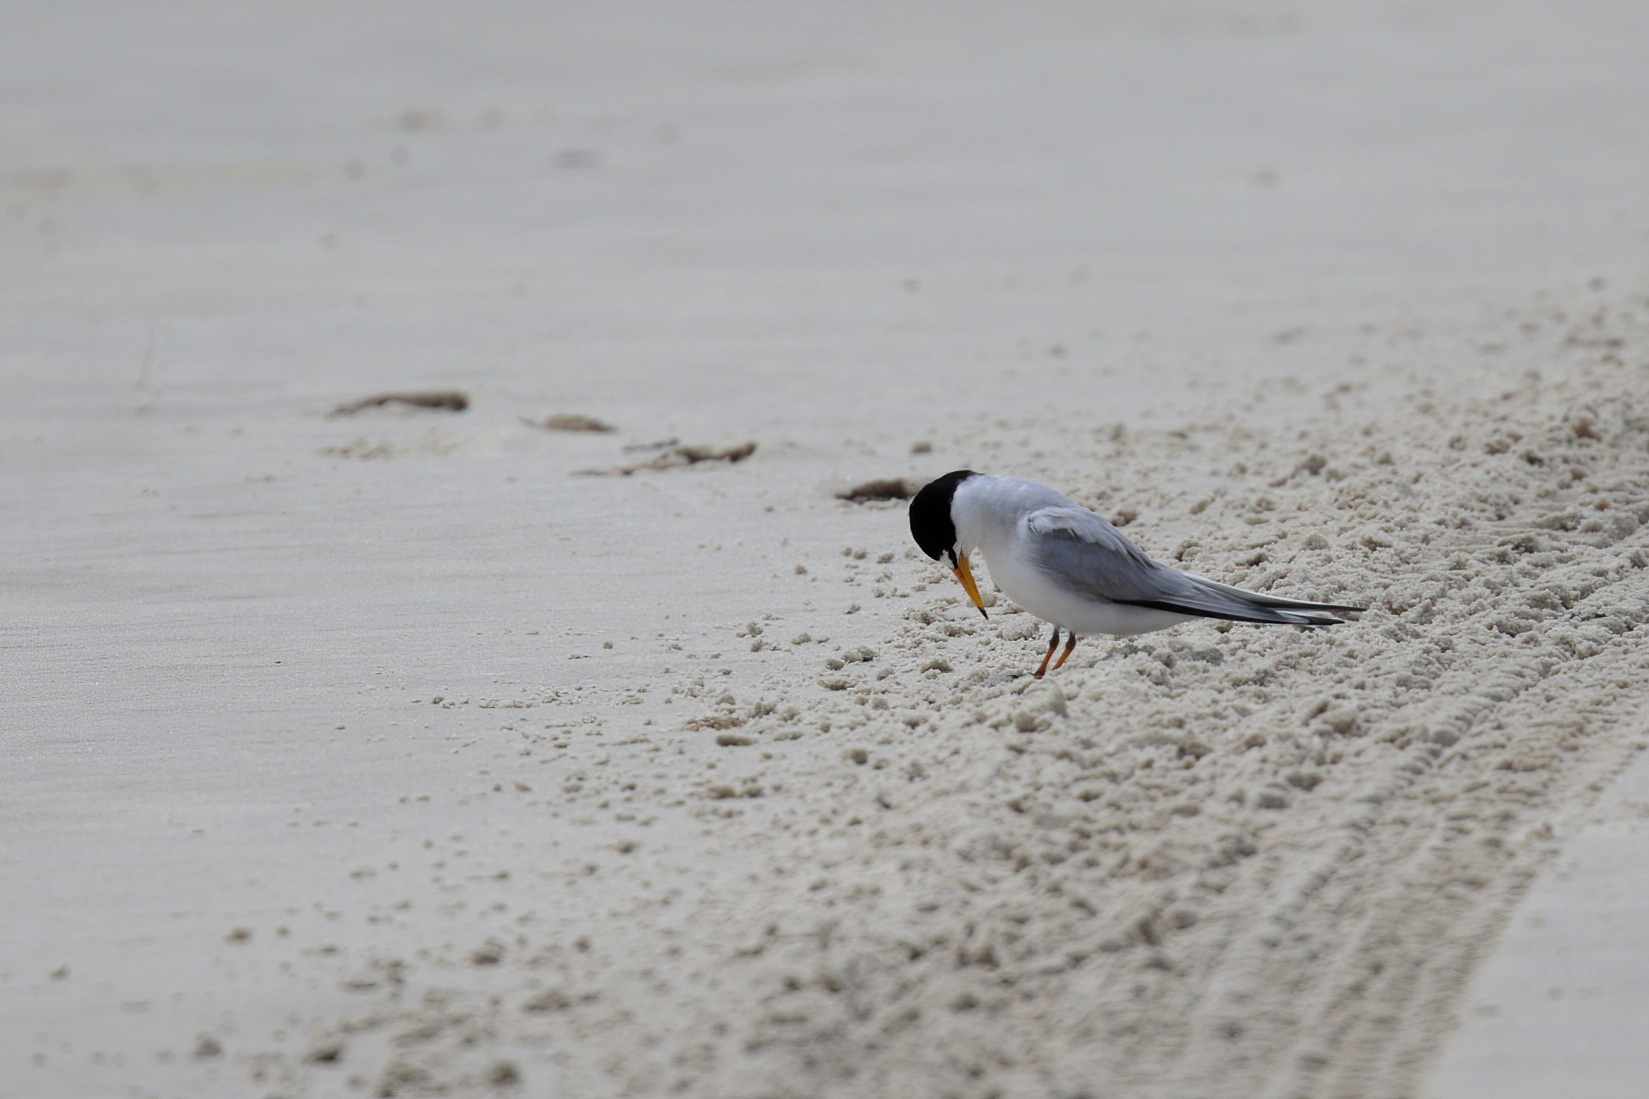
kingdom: Animalia
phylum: Chordata
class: Aves
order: Charadriiformes
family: Laridae
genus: Sternula
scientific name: Sternula antillarum
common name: Least tern
